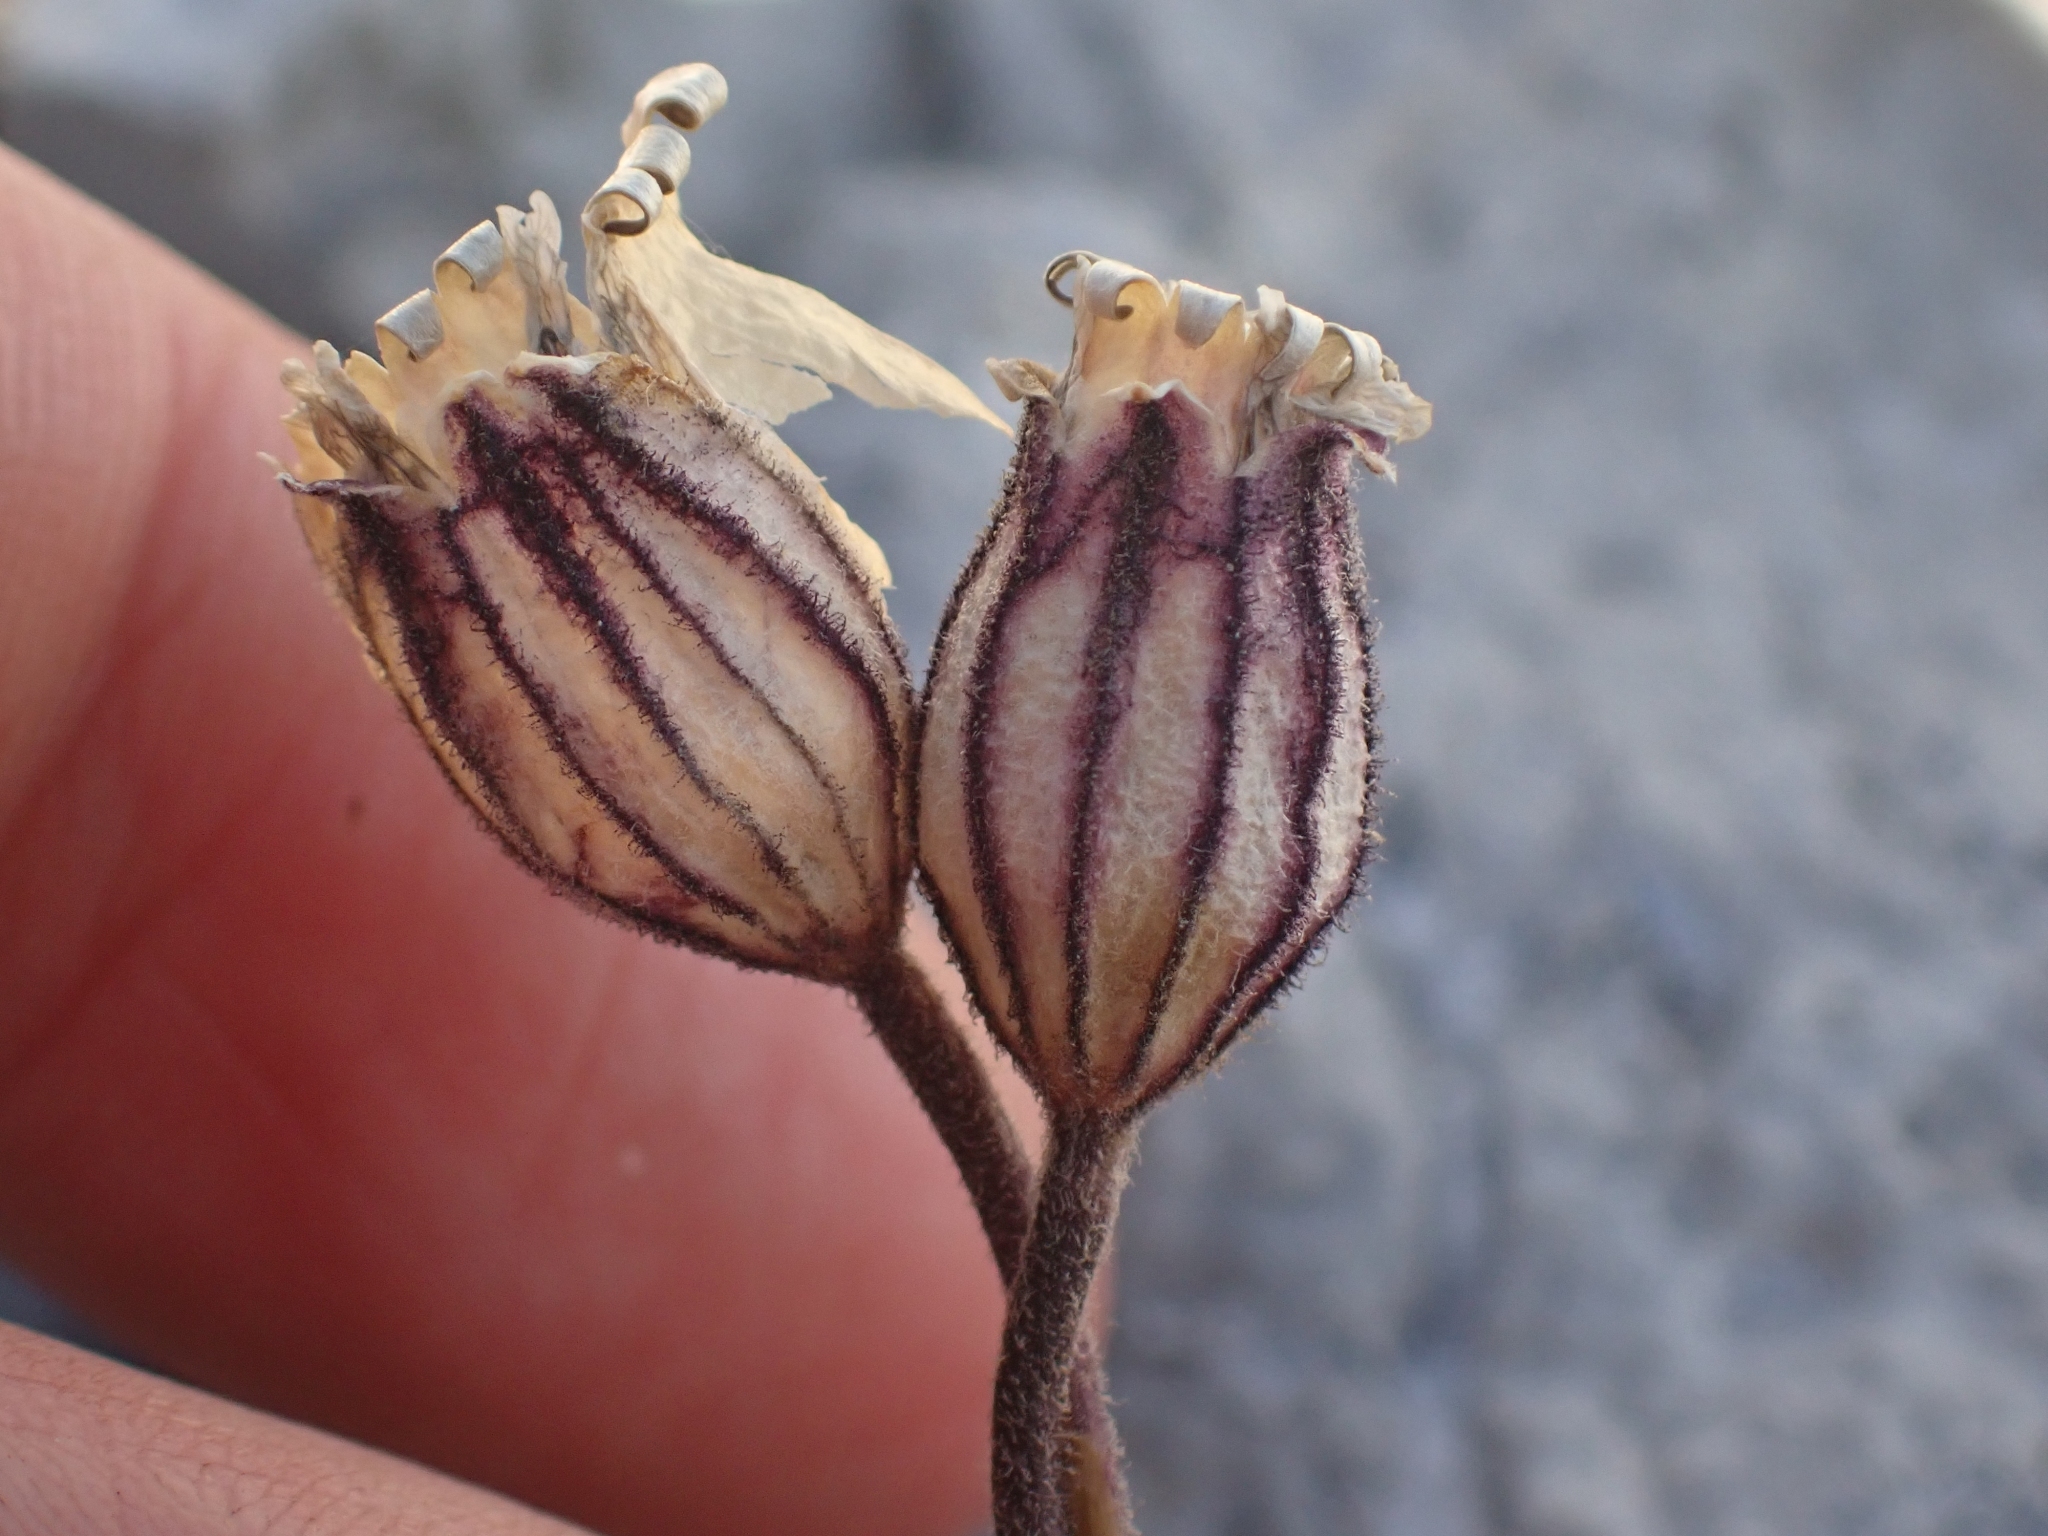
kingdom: Plantae
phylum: Tracheophyta
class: Magnoliopsida
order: Caryophyllales
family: Caryophyllaceae
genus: Silene
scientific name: Silene uralensis
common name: Nodding campion
